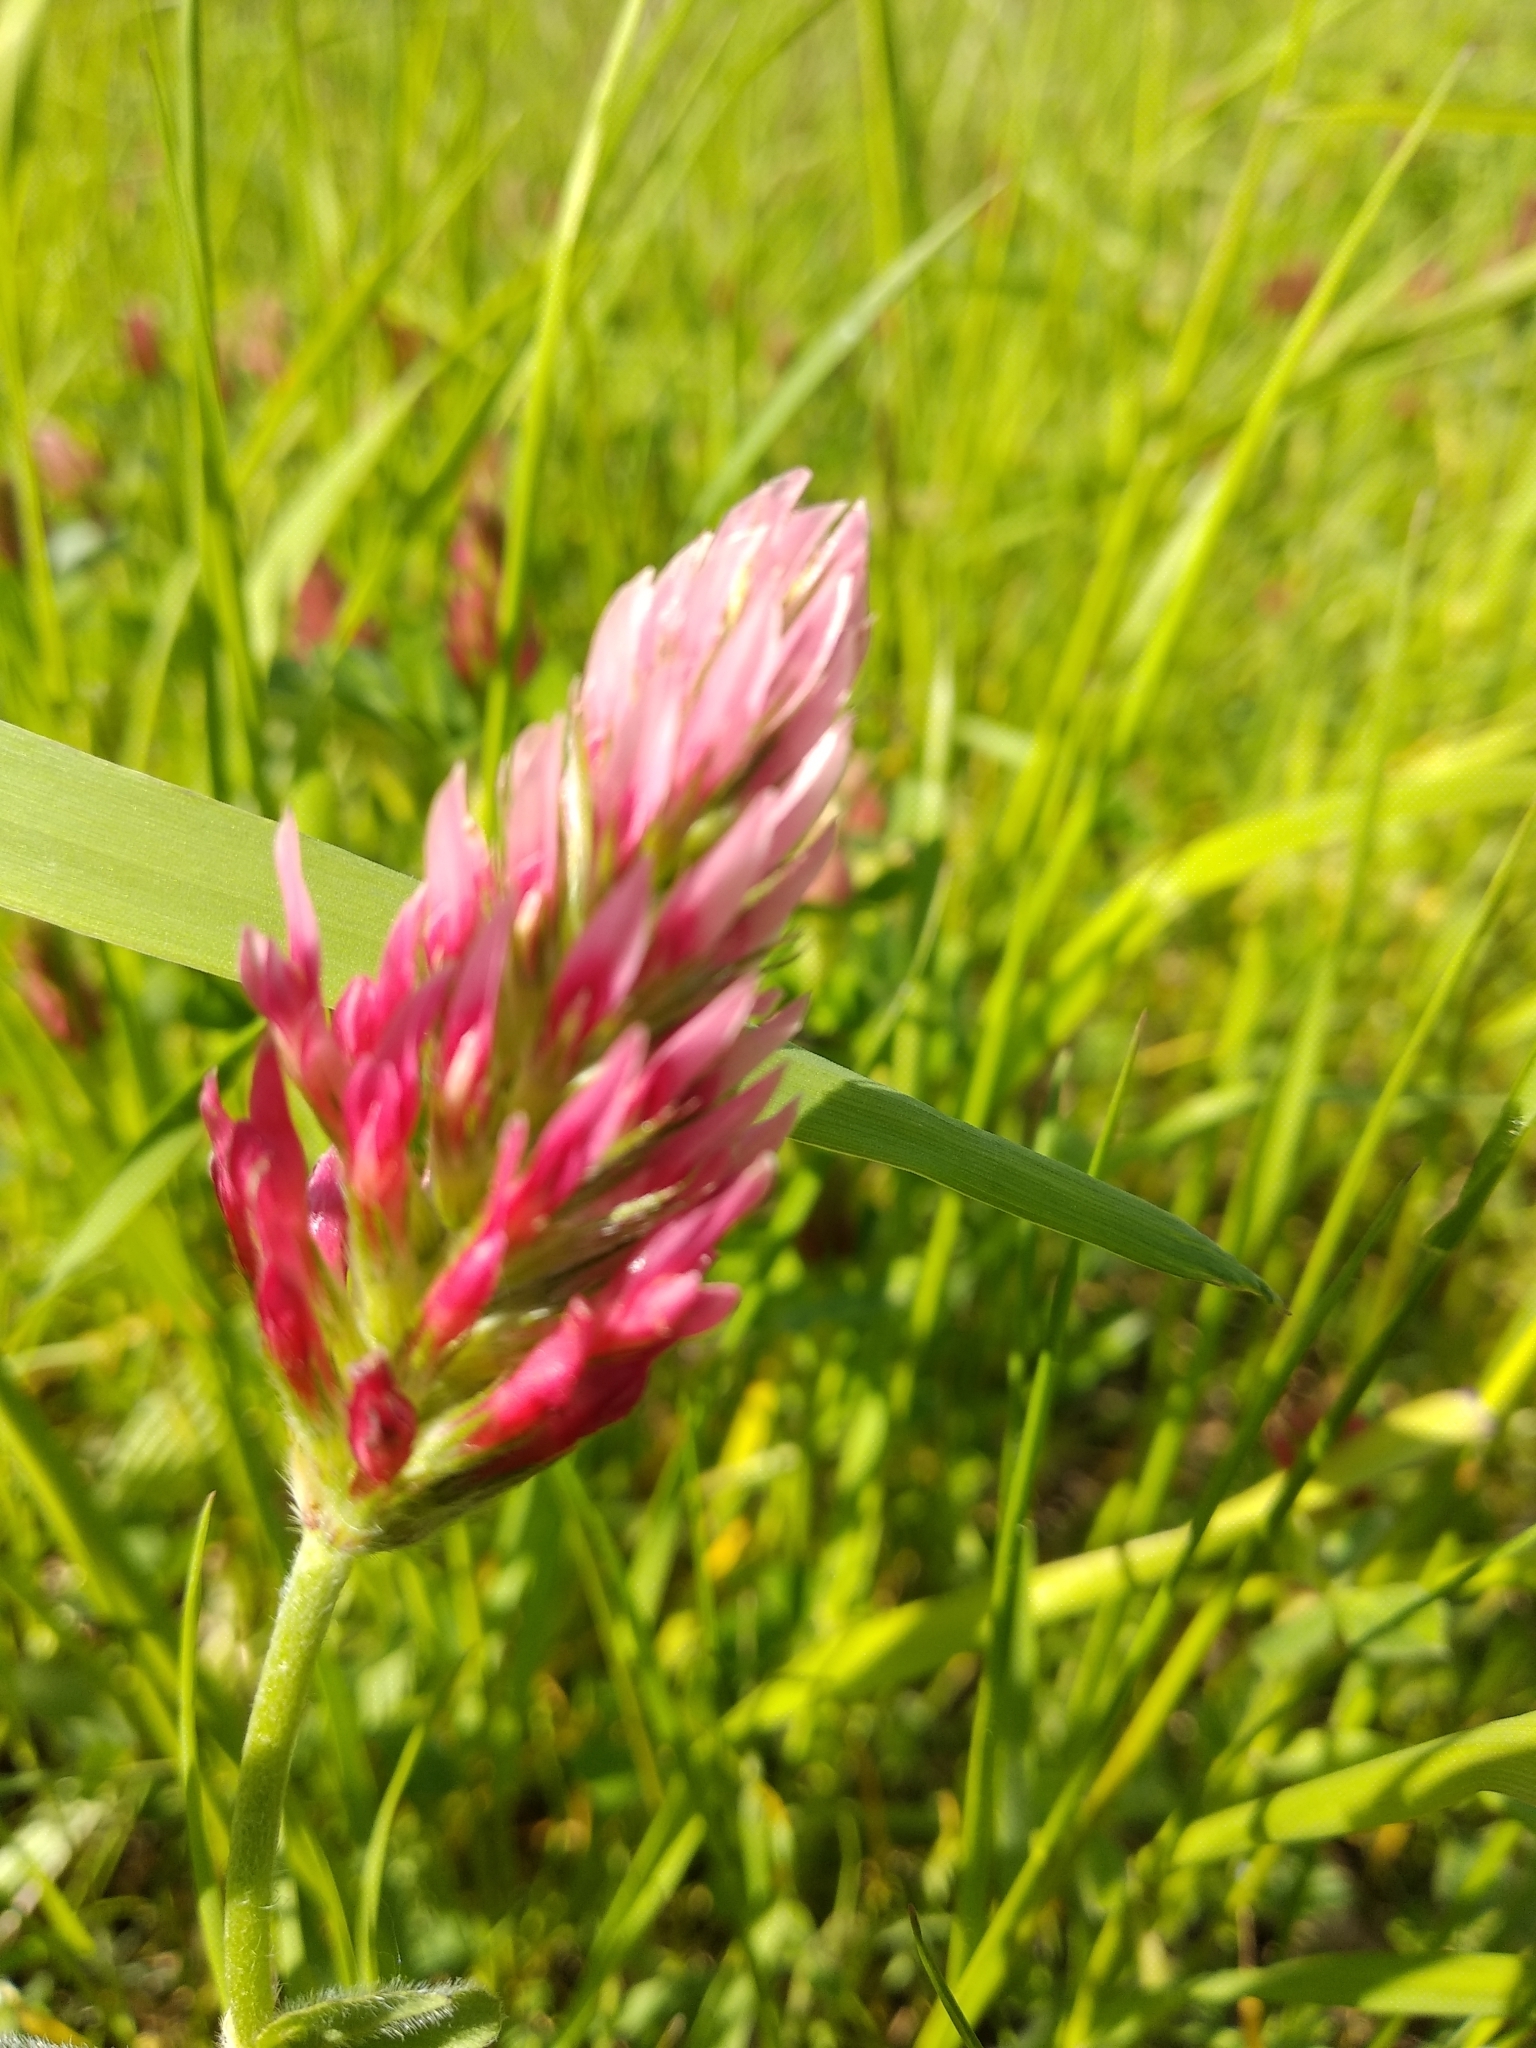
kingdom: Plantae
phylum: Tracheophyta
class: Magnoliopsida
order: Fabales
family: Fabaceae
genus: Trifolium
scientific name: Trifolium incarnatum
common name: Crimson clover
